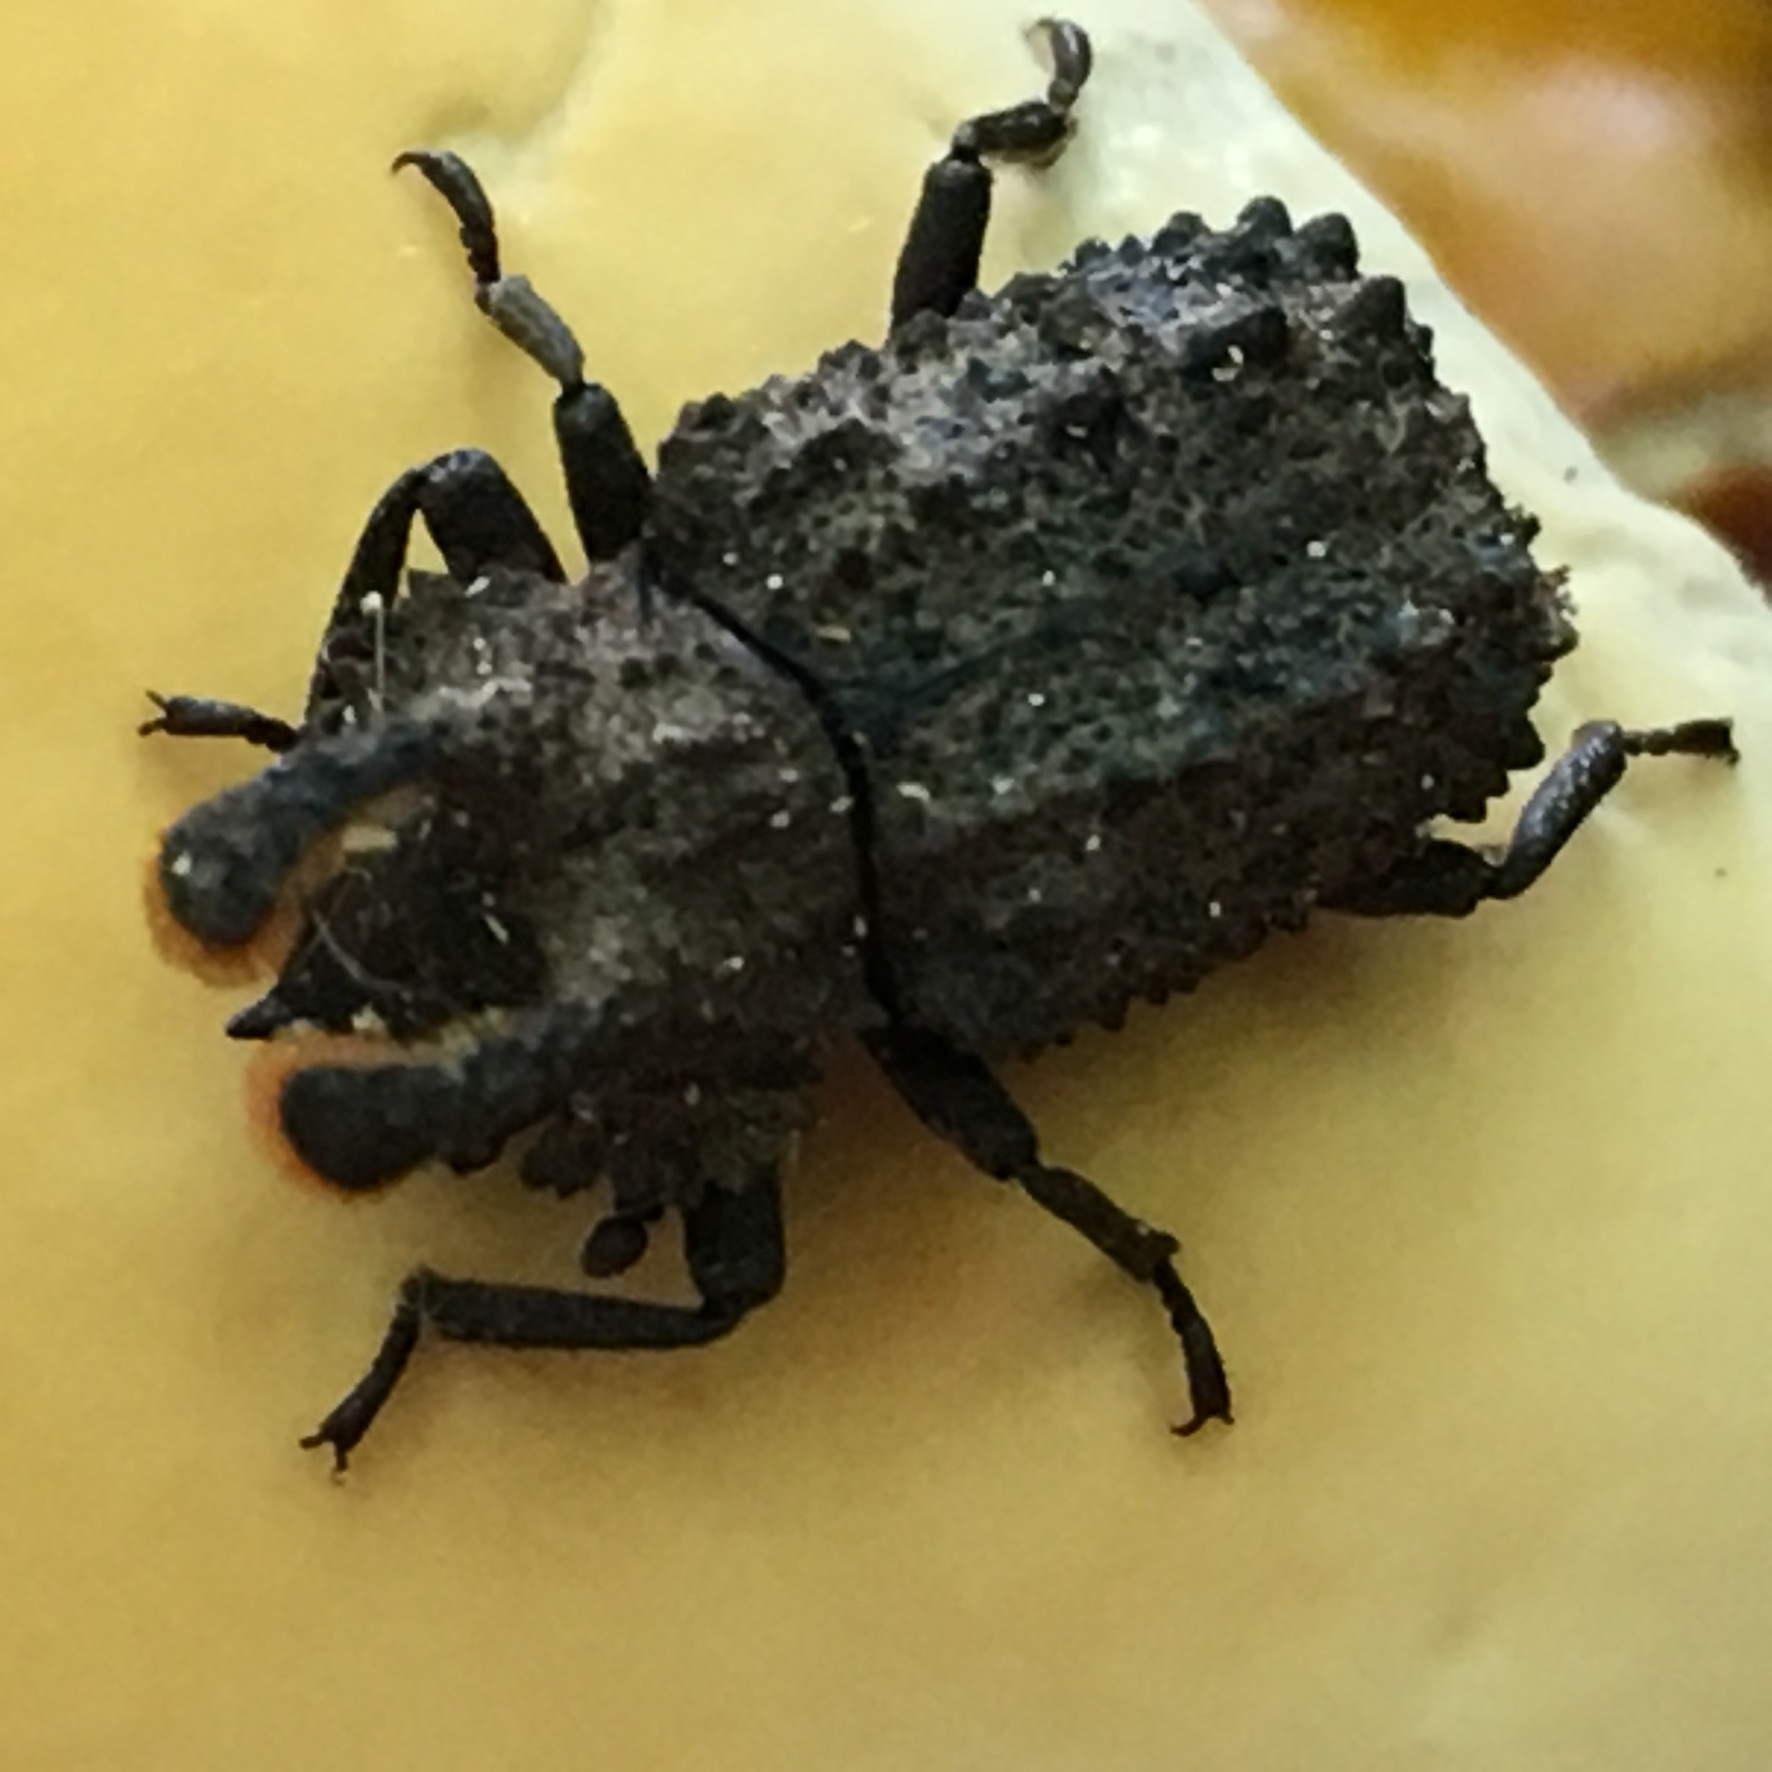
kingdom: Animalia
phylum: Arthropoda
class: Insecta
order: Coleoptera
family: Tenebrionidae
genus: Gnatocerus
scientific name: Gnatocerus cornutus
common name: Broad-horned flour beetle
